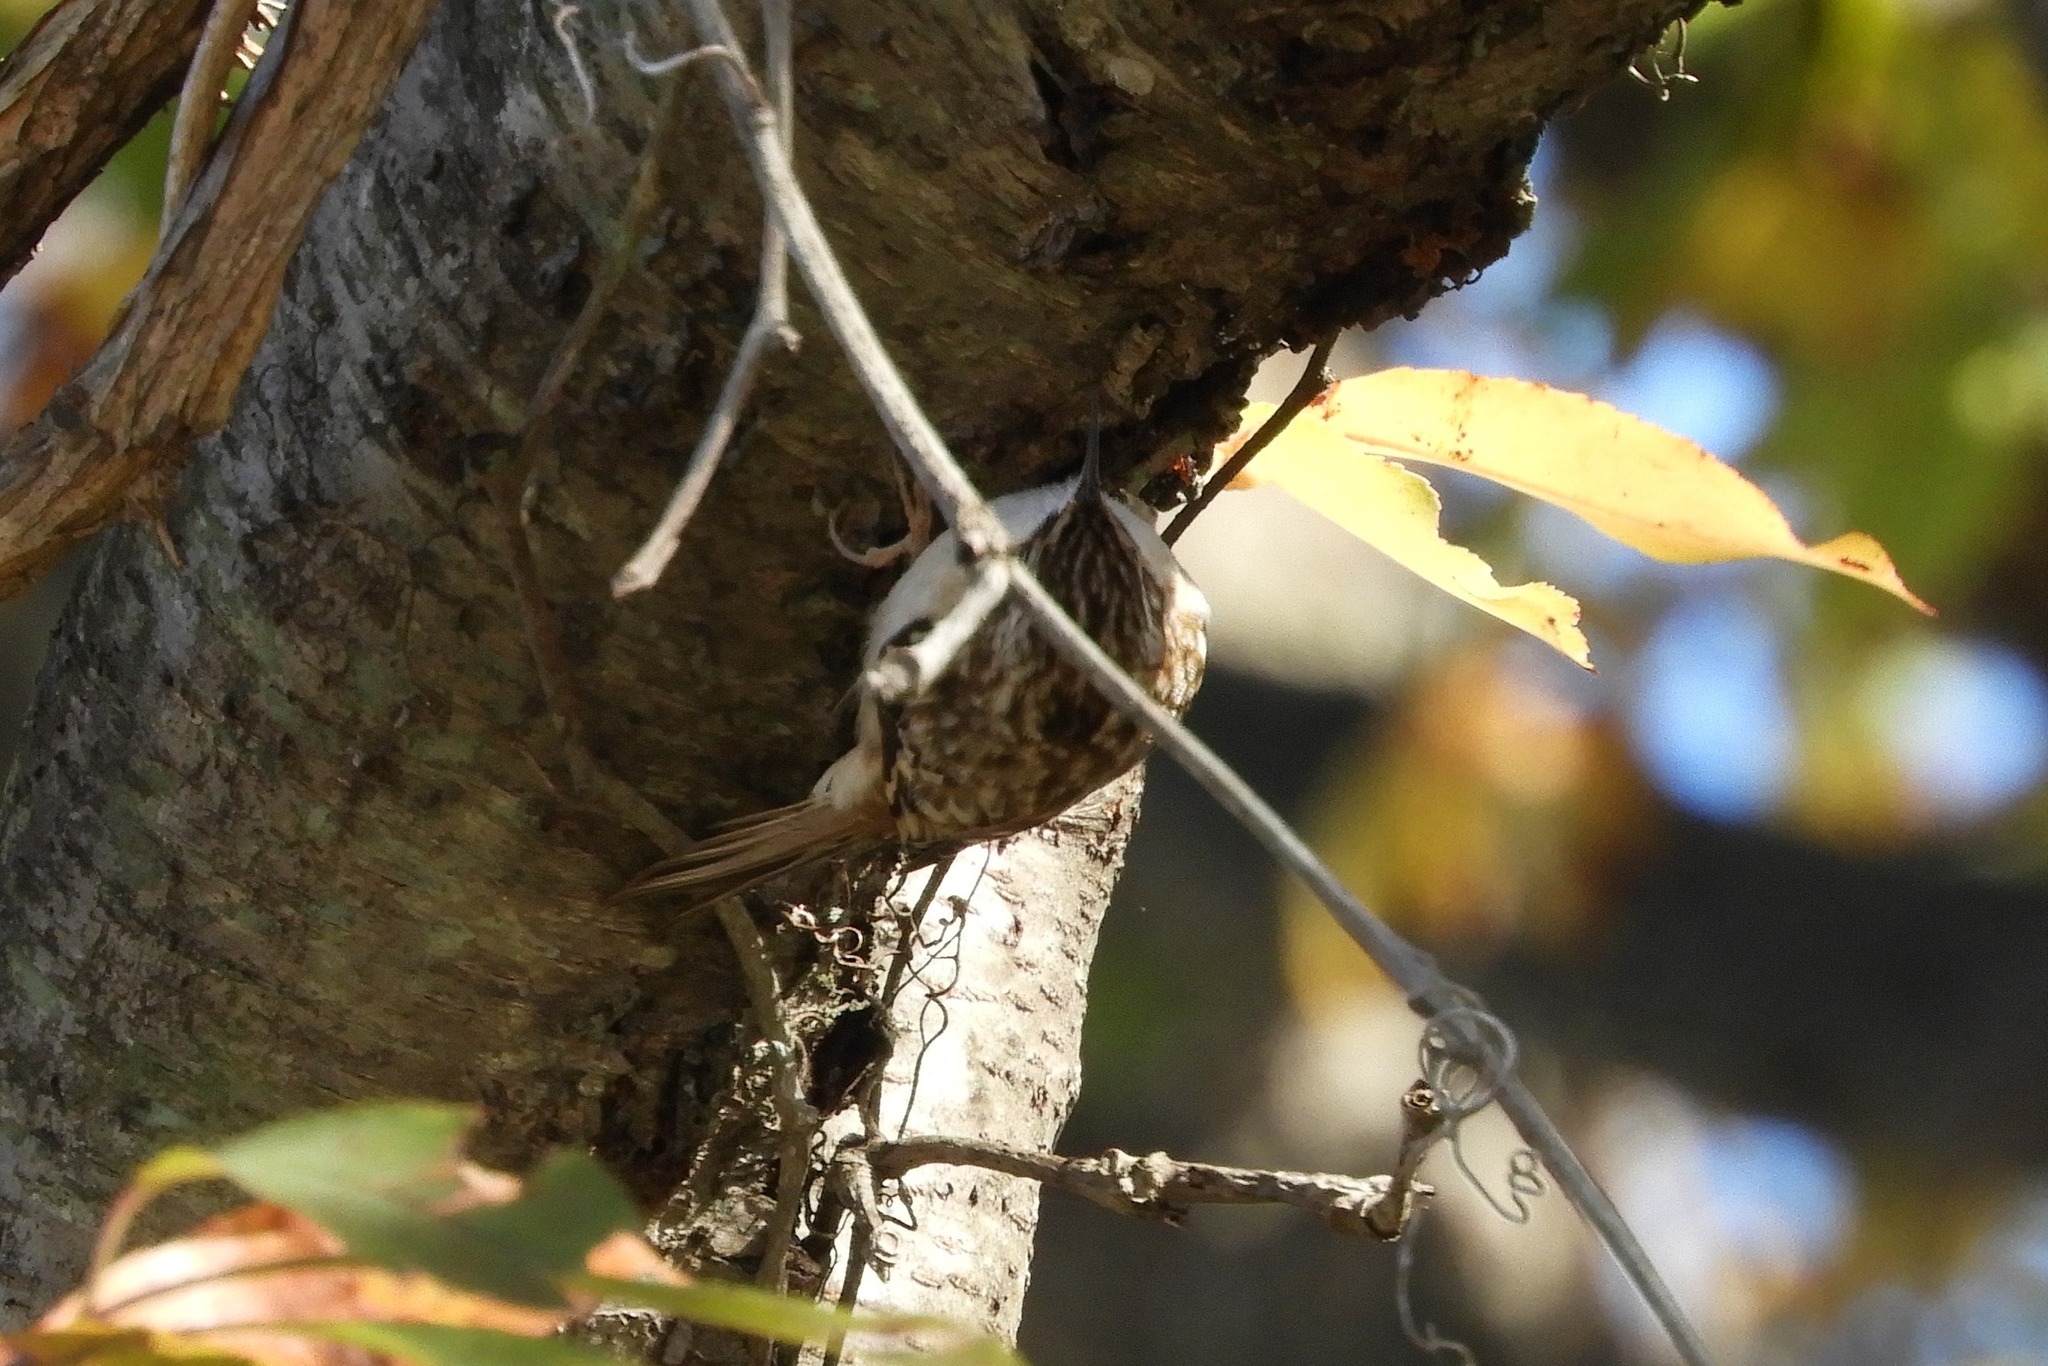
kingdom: Animalia
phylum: Chordata
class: Aves
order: Passeriformes
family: Certhiidae
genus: Certhia
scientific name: Certhia americana
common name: Brown creeper
